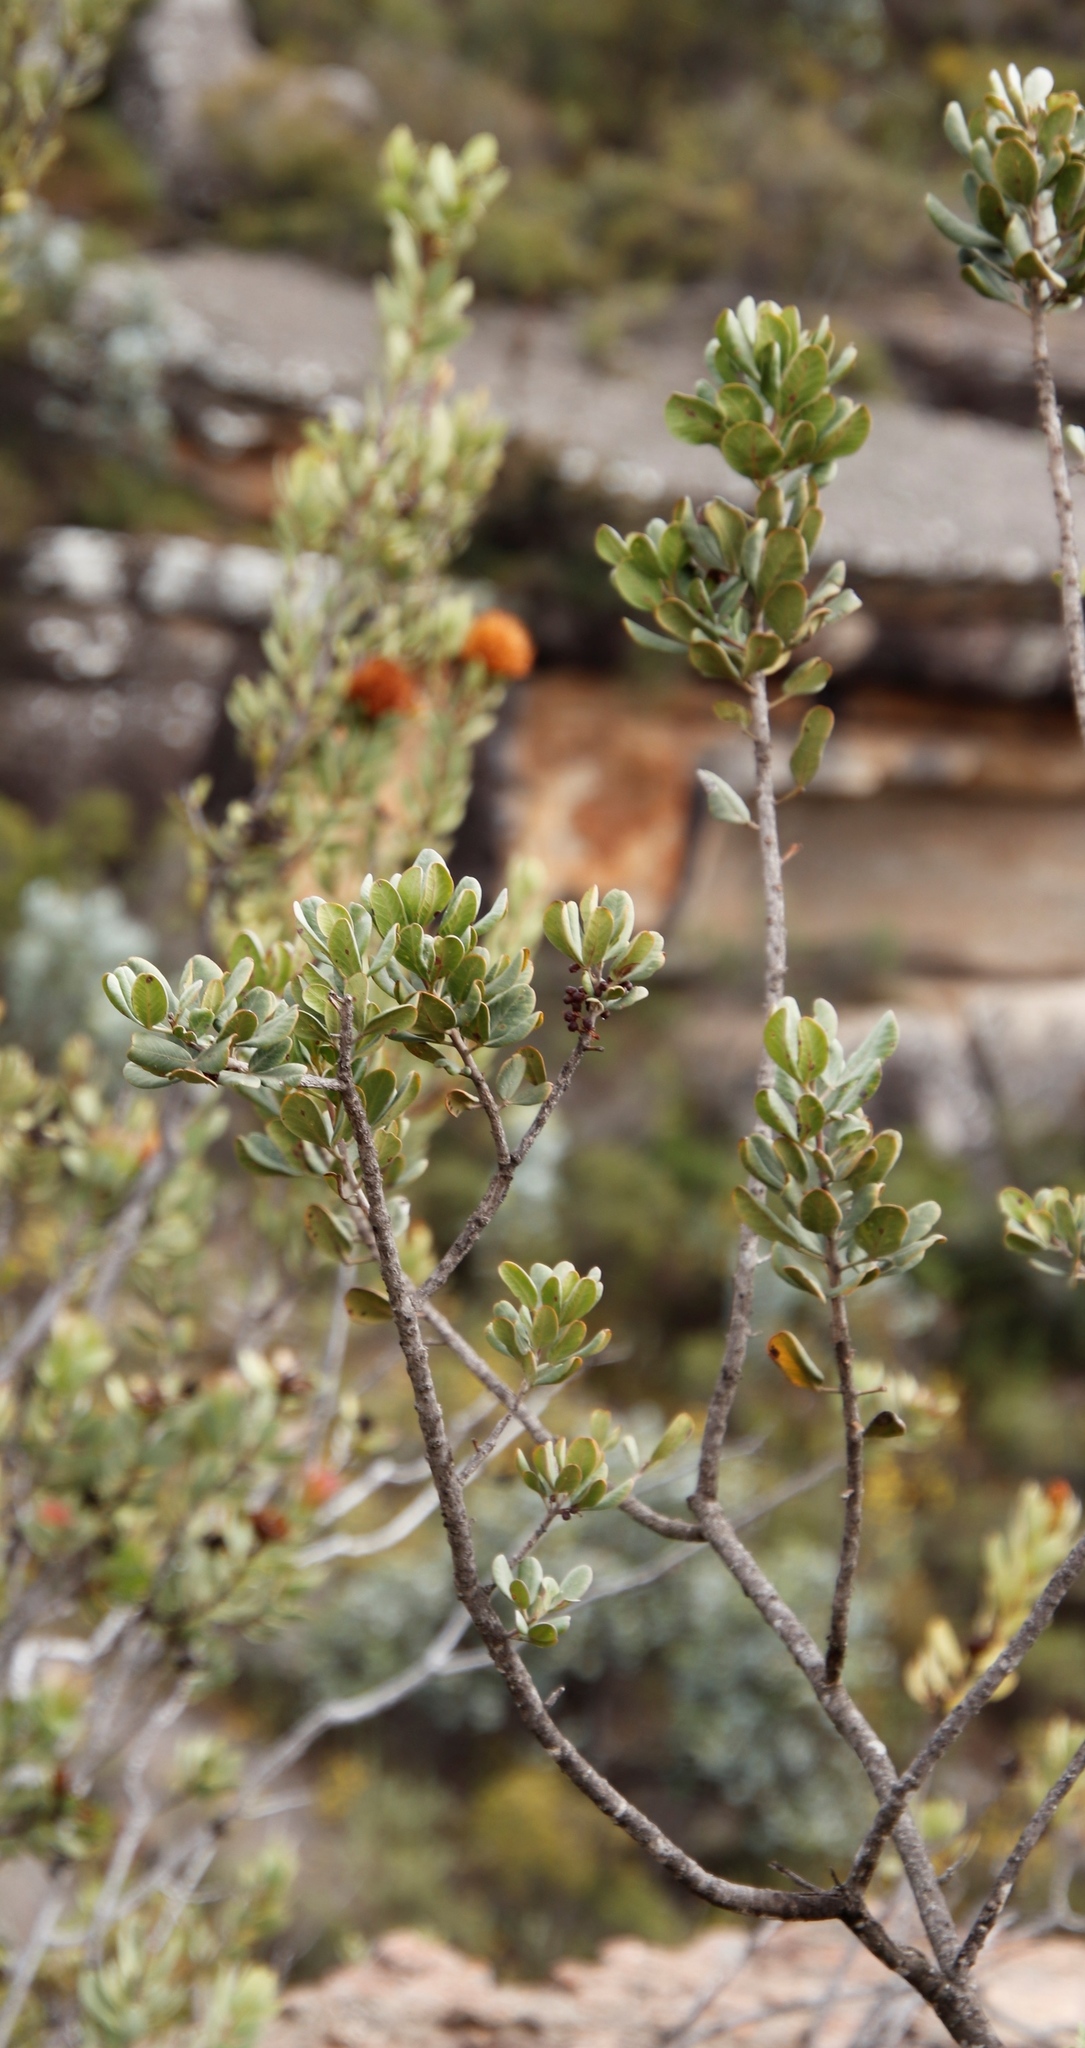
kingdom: Plantae
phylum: Tracheophyta
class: Magnoliopsida
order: Sapindales
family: Anacardiaceae
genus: Searsia
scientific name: Searsia scytophylla
